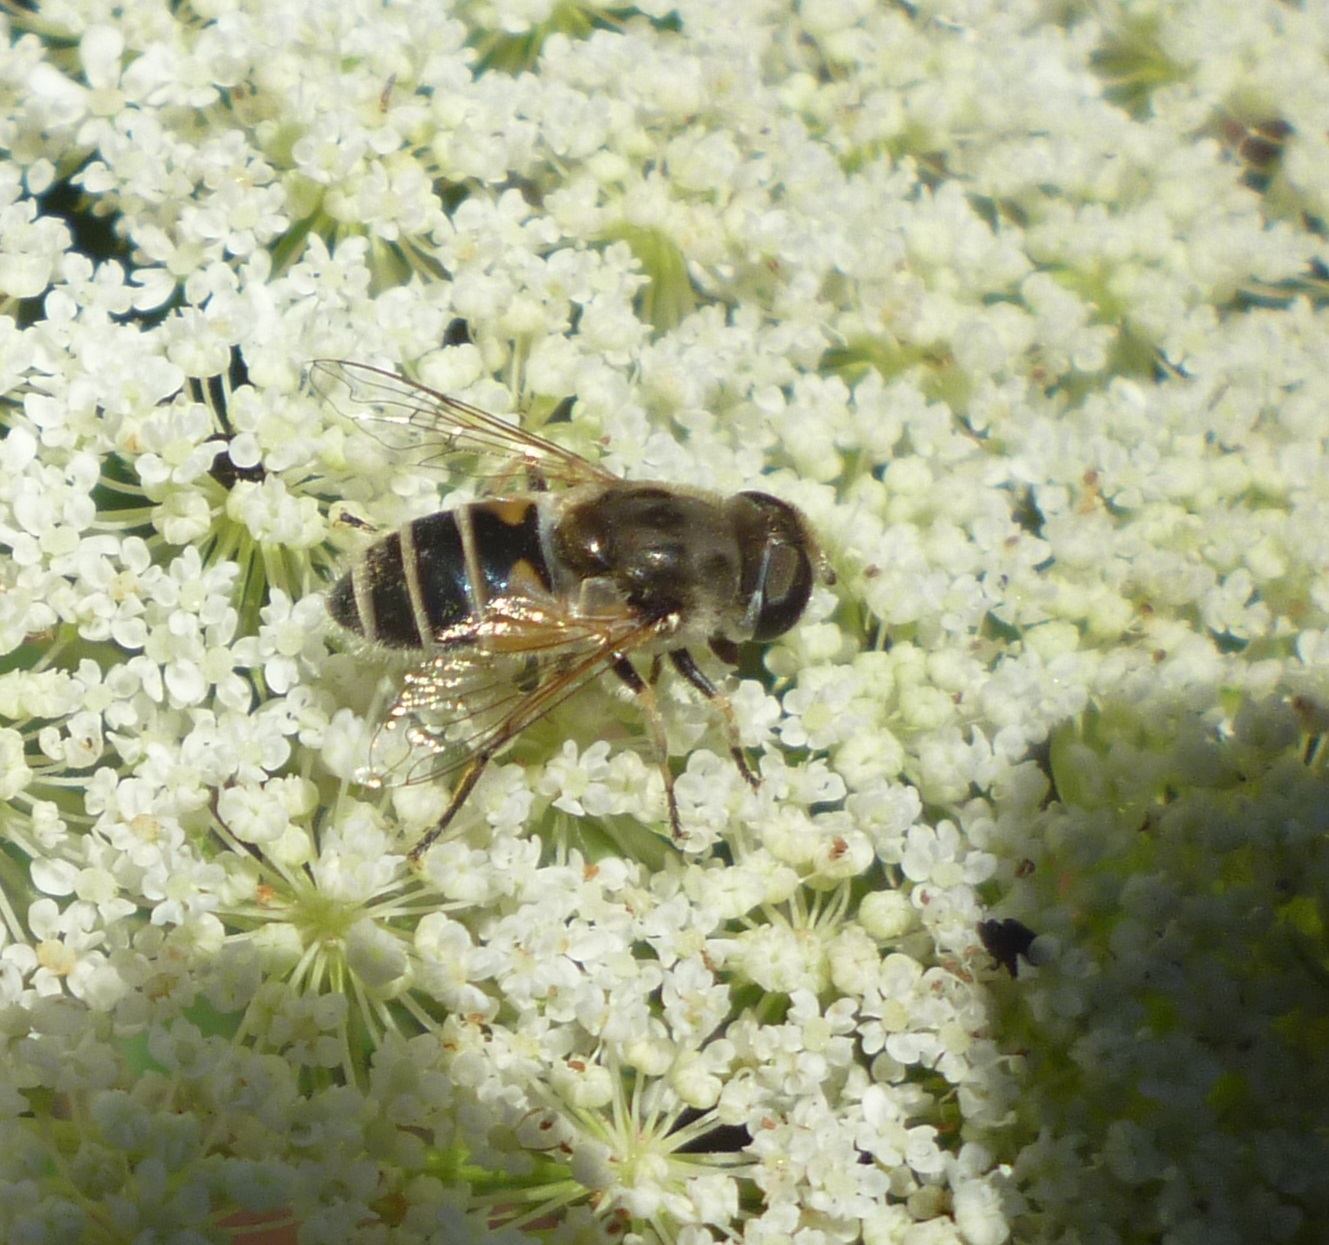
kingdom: Animalia
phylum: Arthropoda
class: Insecta
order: Diptera
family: Syrphidae
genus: Eristalis
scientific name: Eristalis arbustorum
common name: Hover fly
